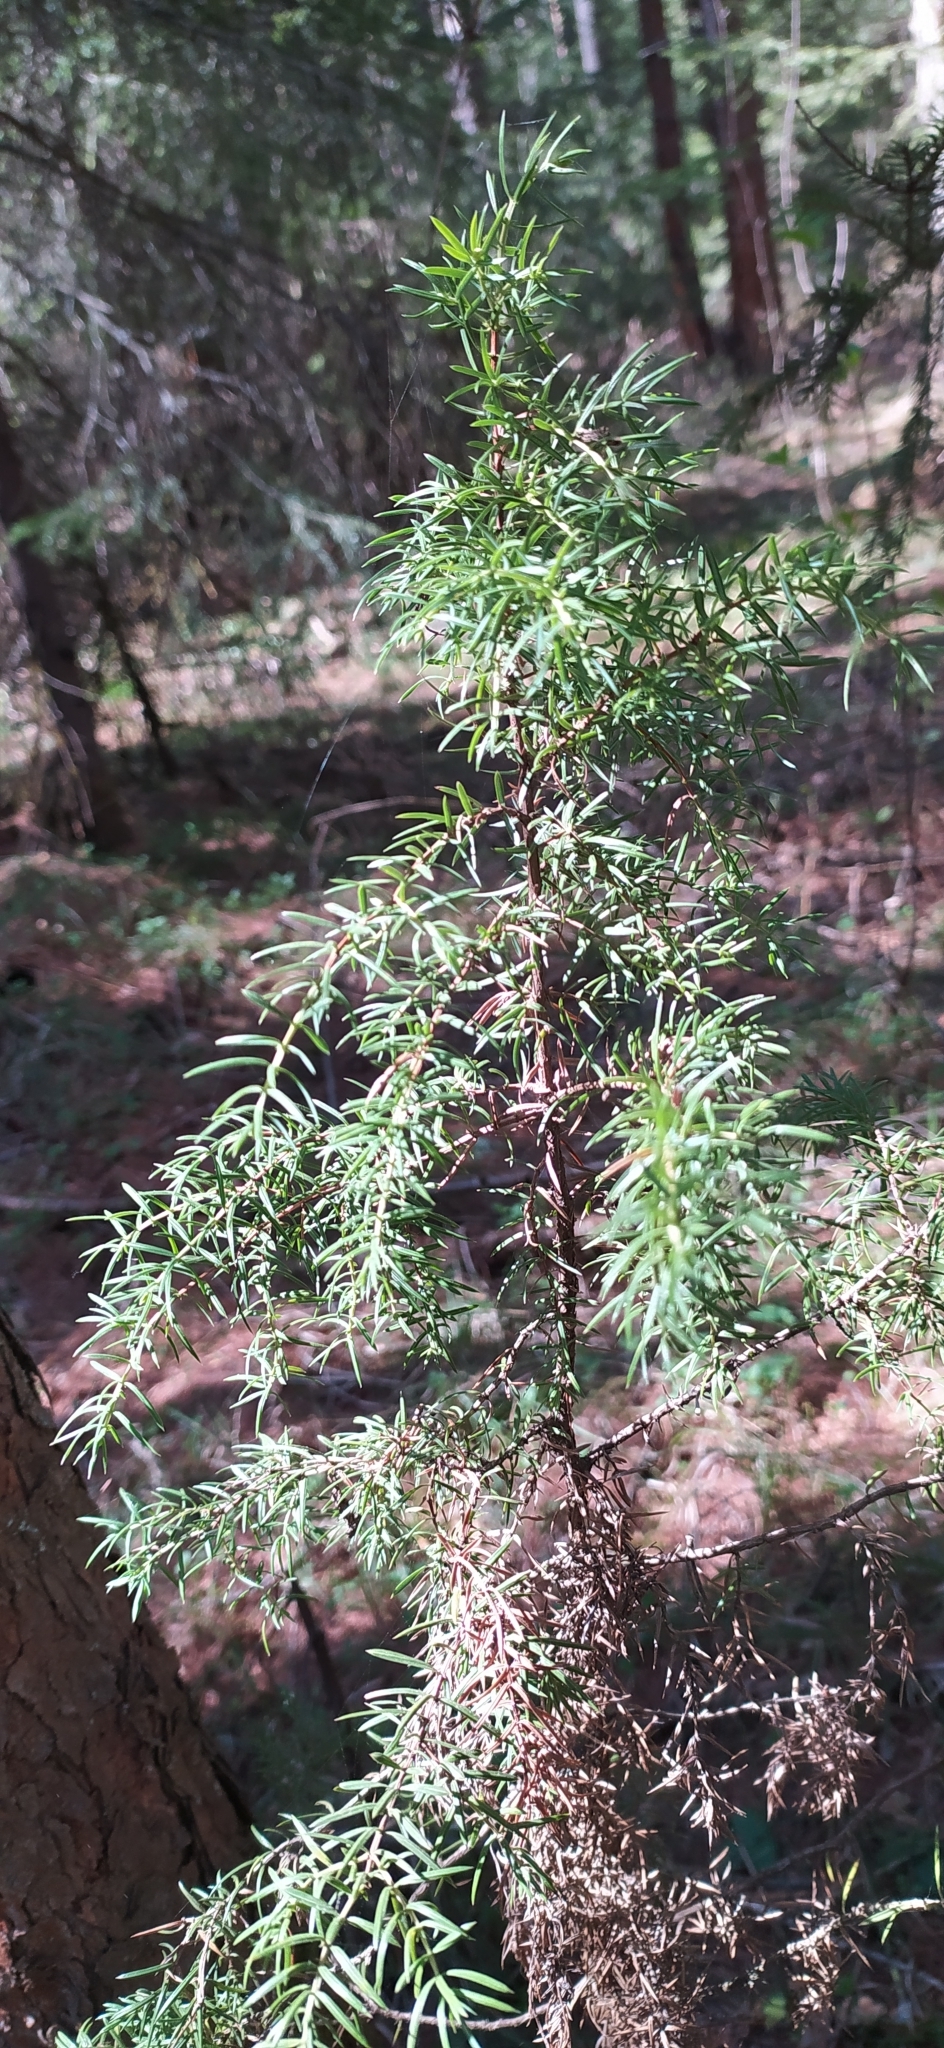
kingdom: Plantae
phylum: Tracheophyta
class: Pinopsida
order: Pinales
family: Cupressaceae
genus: Juniperus
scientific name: Juniperus communis
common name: Common juniper
